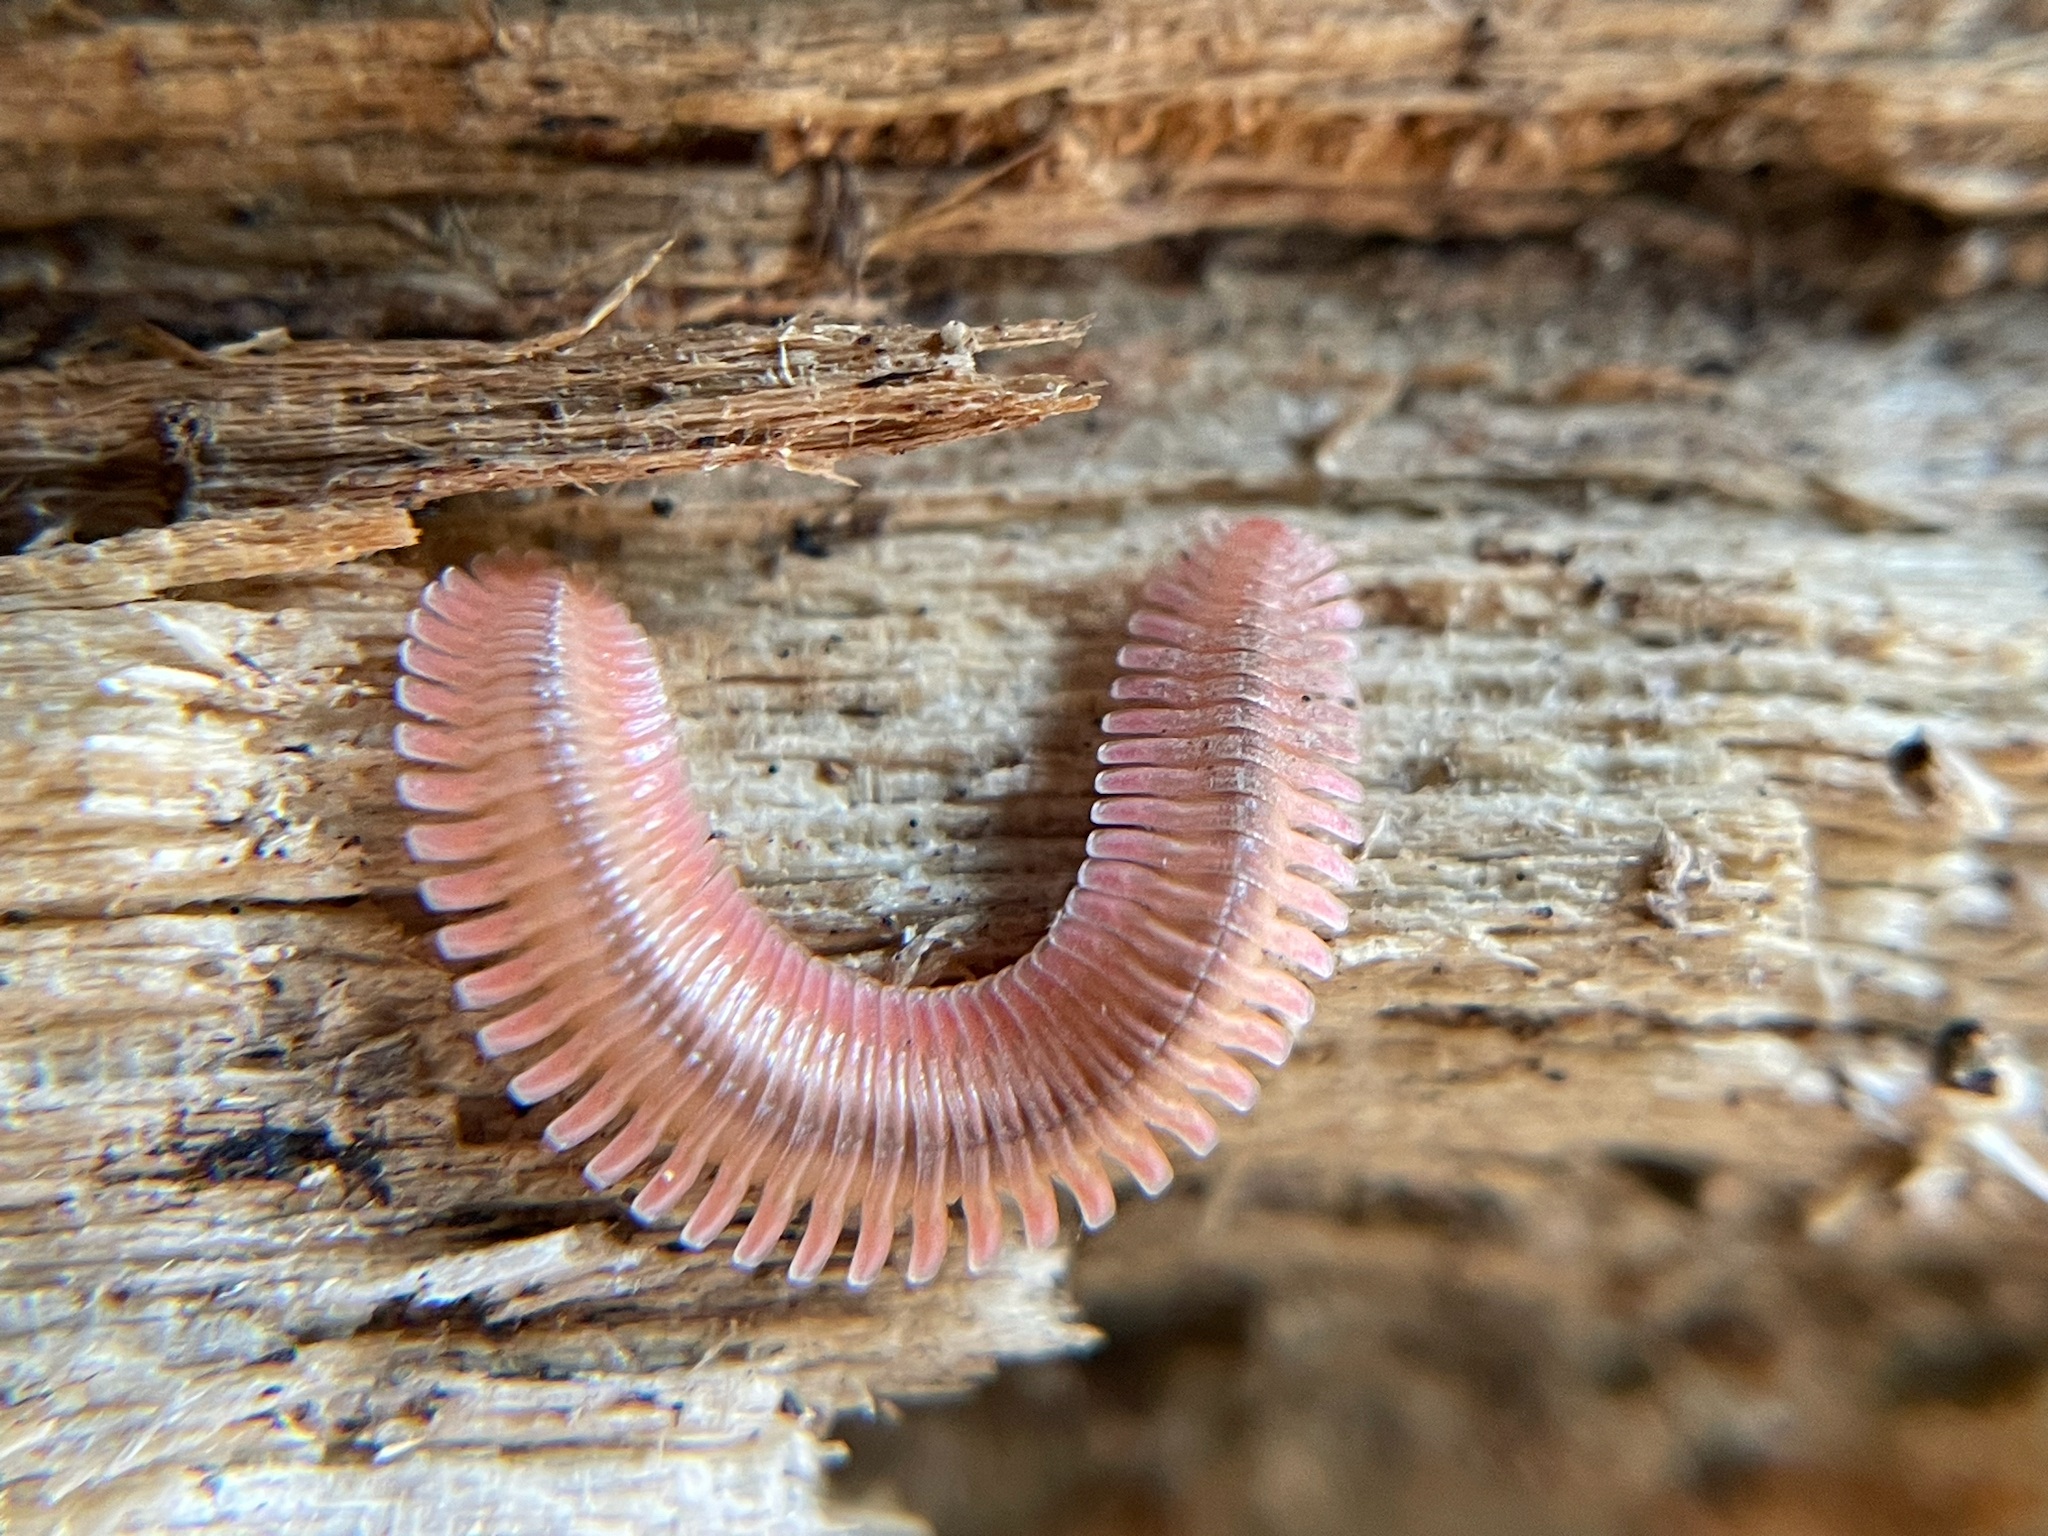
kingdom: Animalia
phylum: Arthropoda
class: Diplopoda
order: Platydesmida
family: Andrognathidae
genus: Brachycybe
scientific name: Brachycybe lecontii
